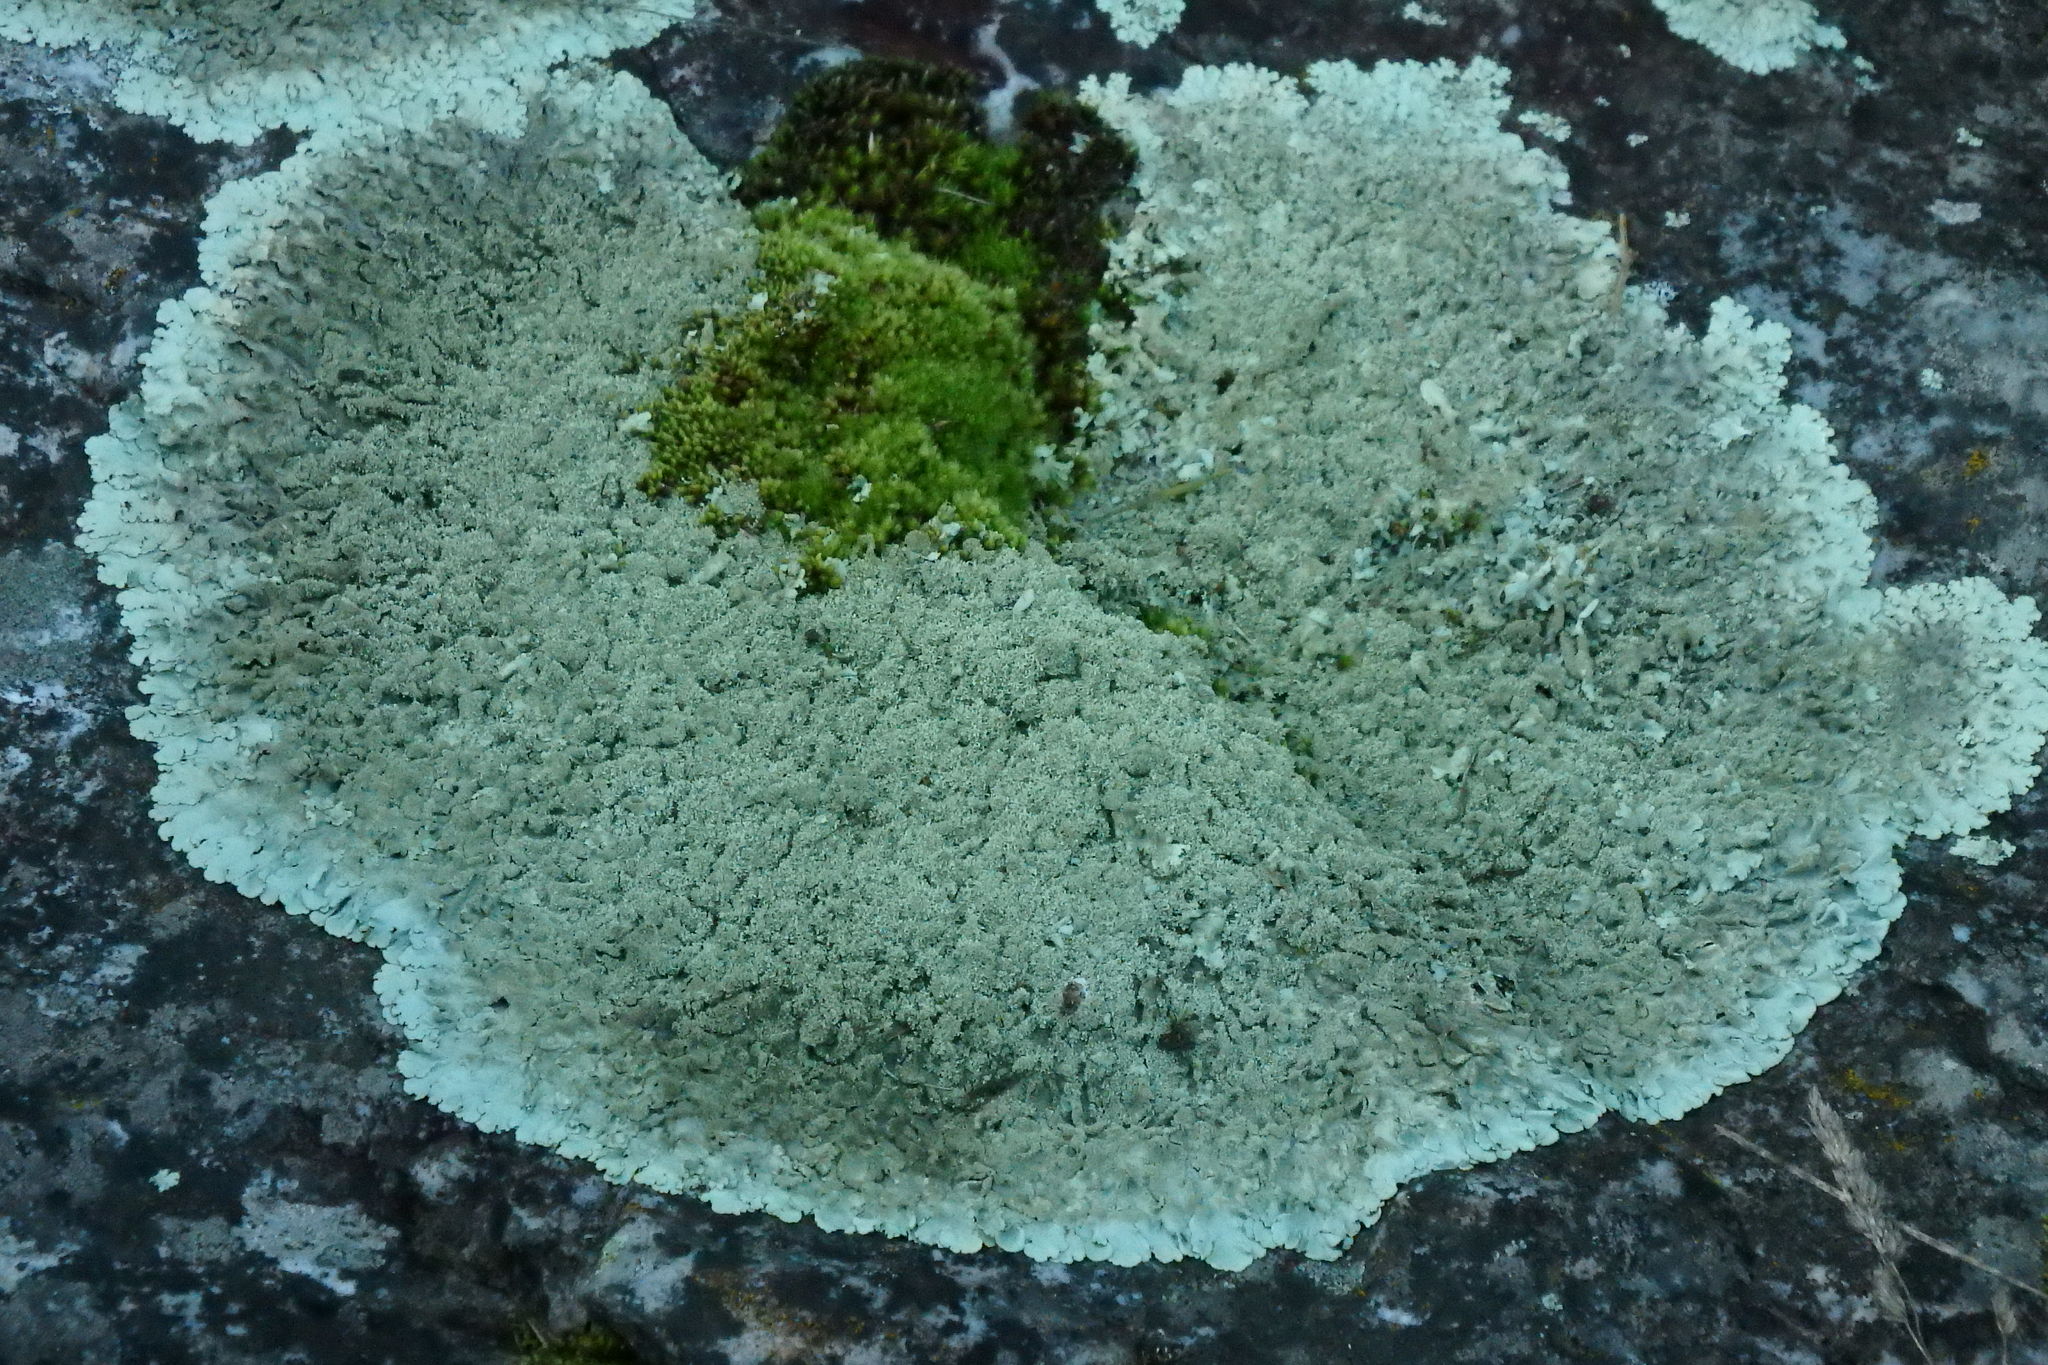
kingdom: Fungi
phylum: Ascomycota
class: Lecanoromycetes
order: Lecanorales
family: Parmeliaceae
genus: Xanthoparmelia
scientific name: Xanthoparmelia
